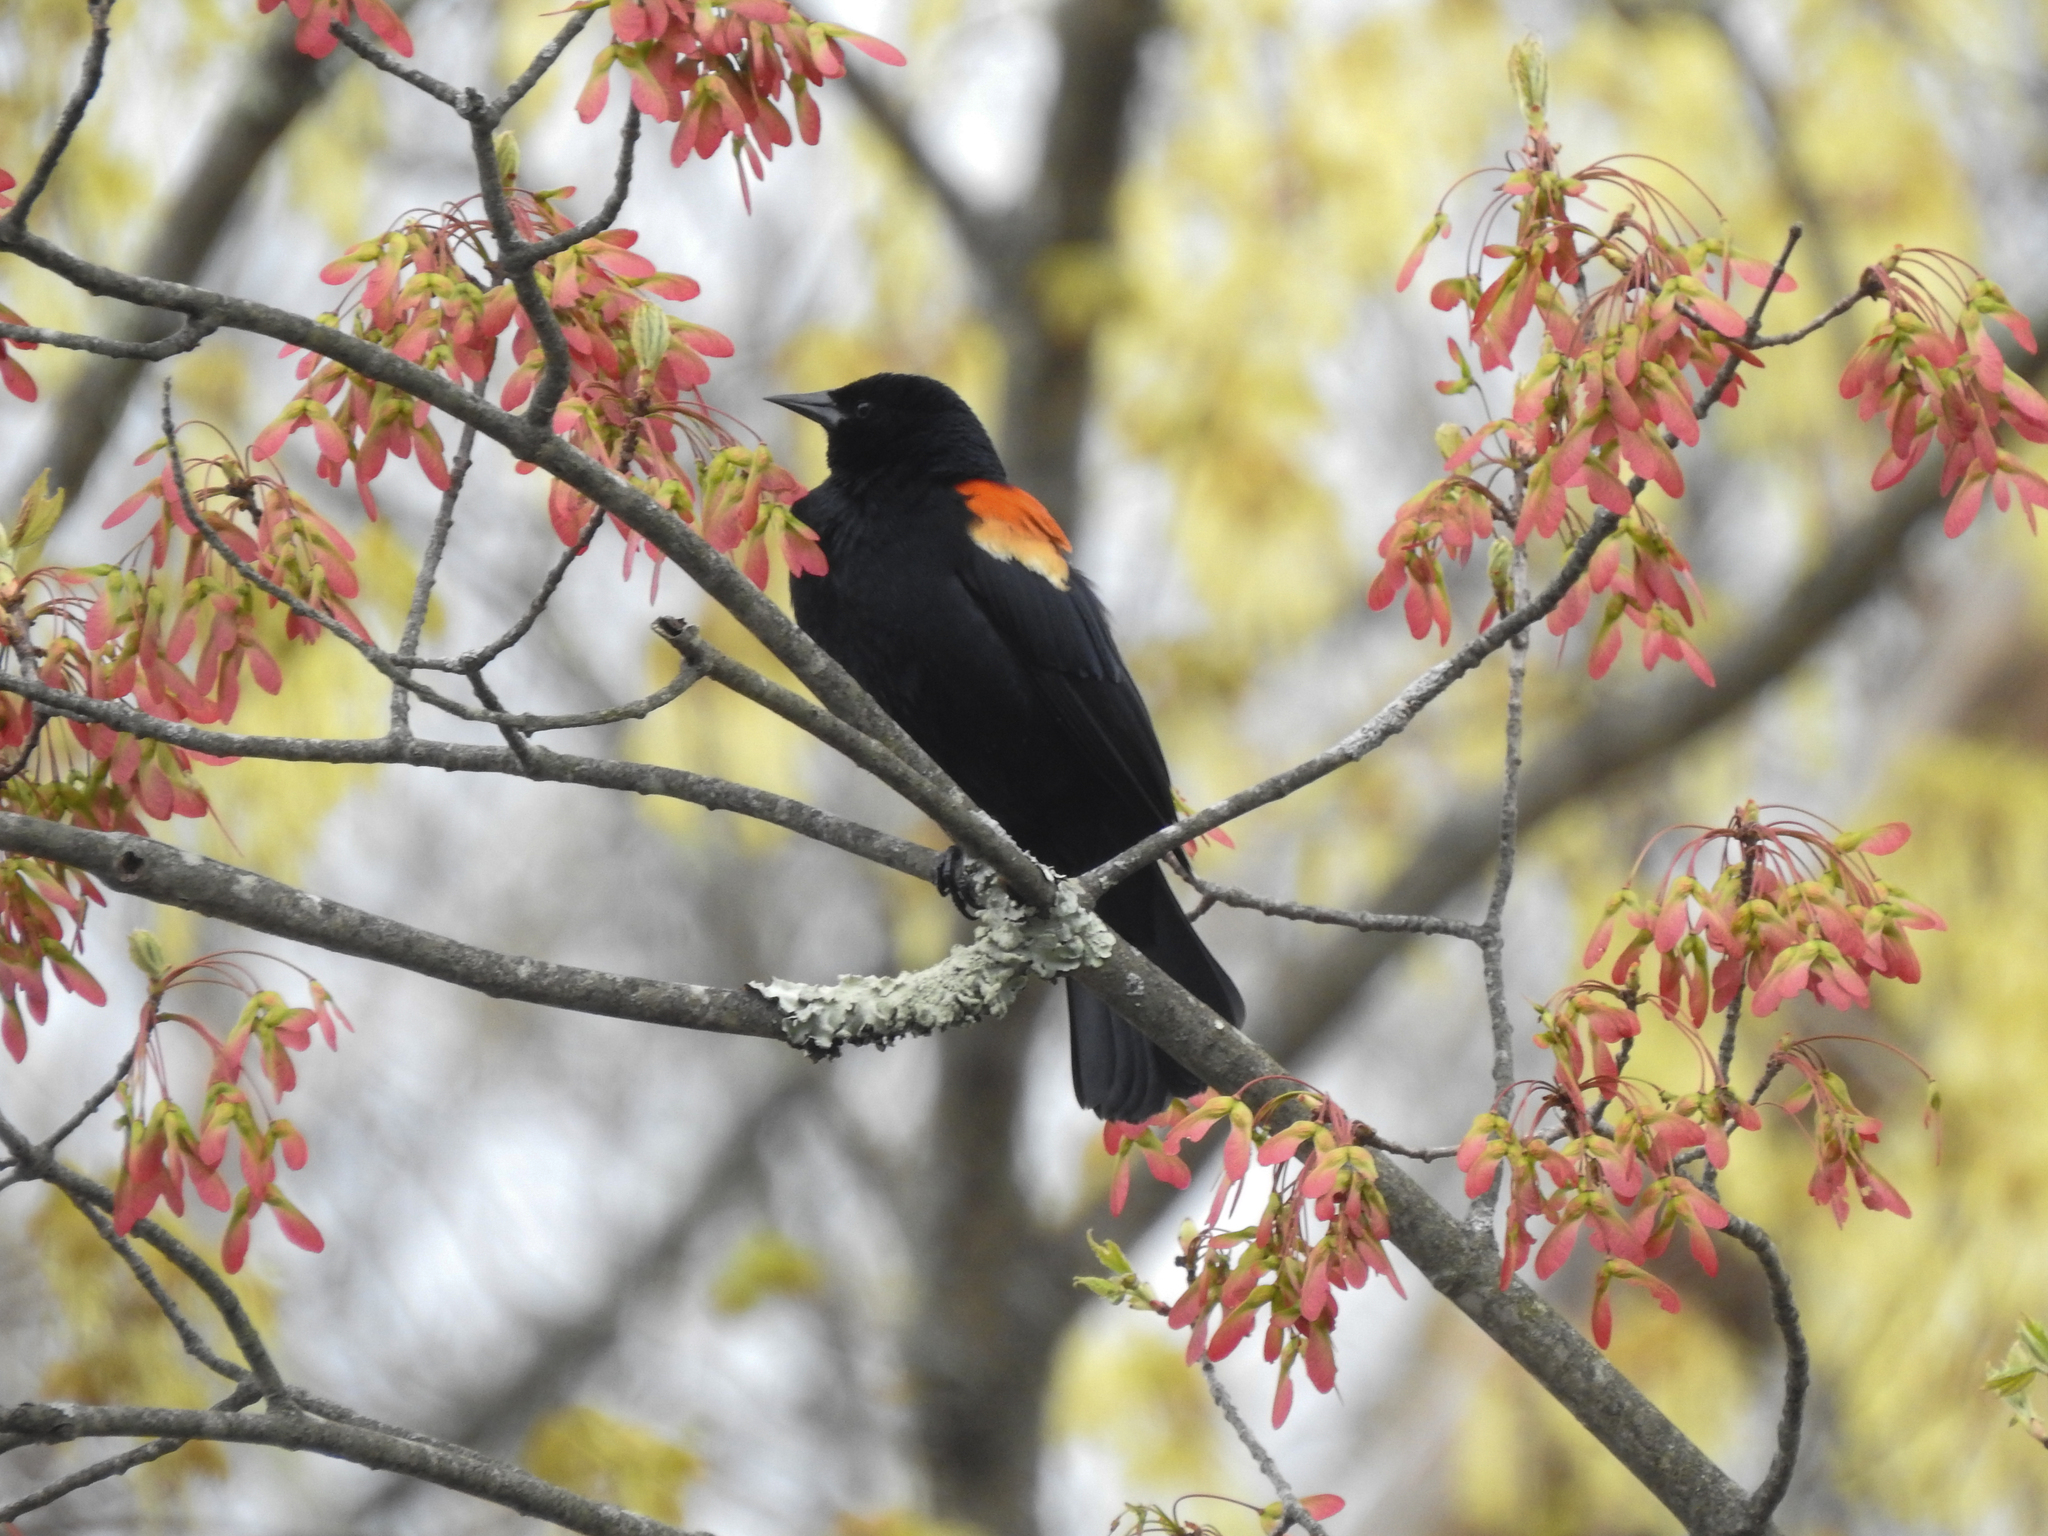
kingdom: Animalia
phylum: Chordata
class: Aves
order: Passeriformes
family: Icteridae
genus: Agelaius
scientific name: Agelaius phoeniceus
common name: Red-winged blackbird
